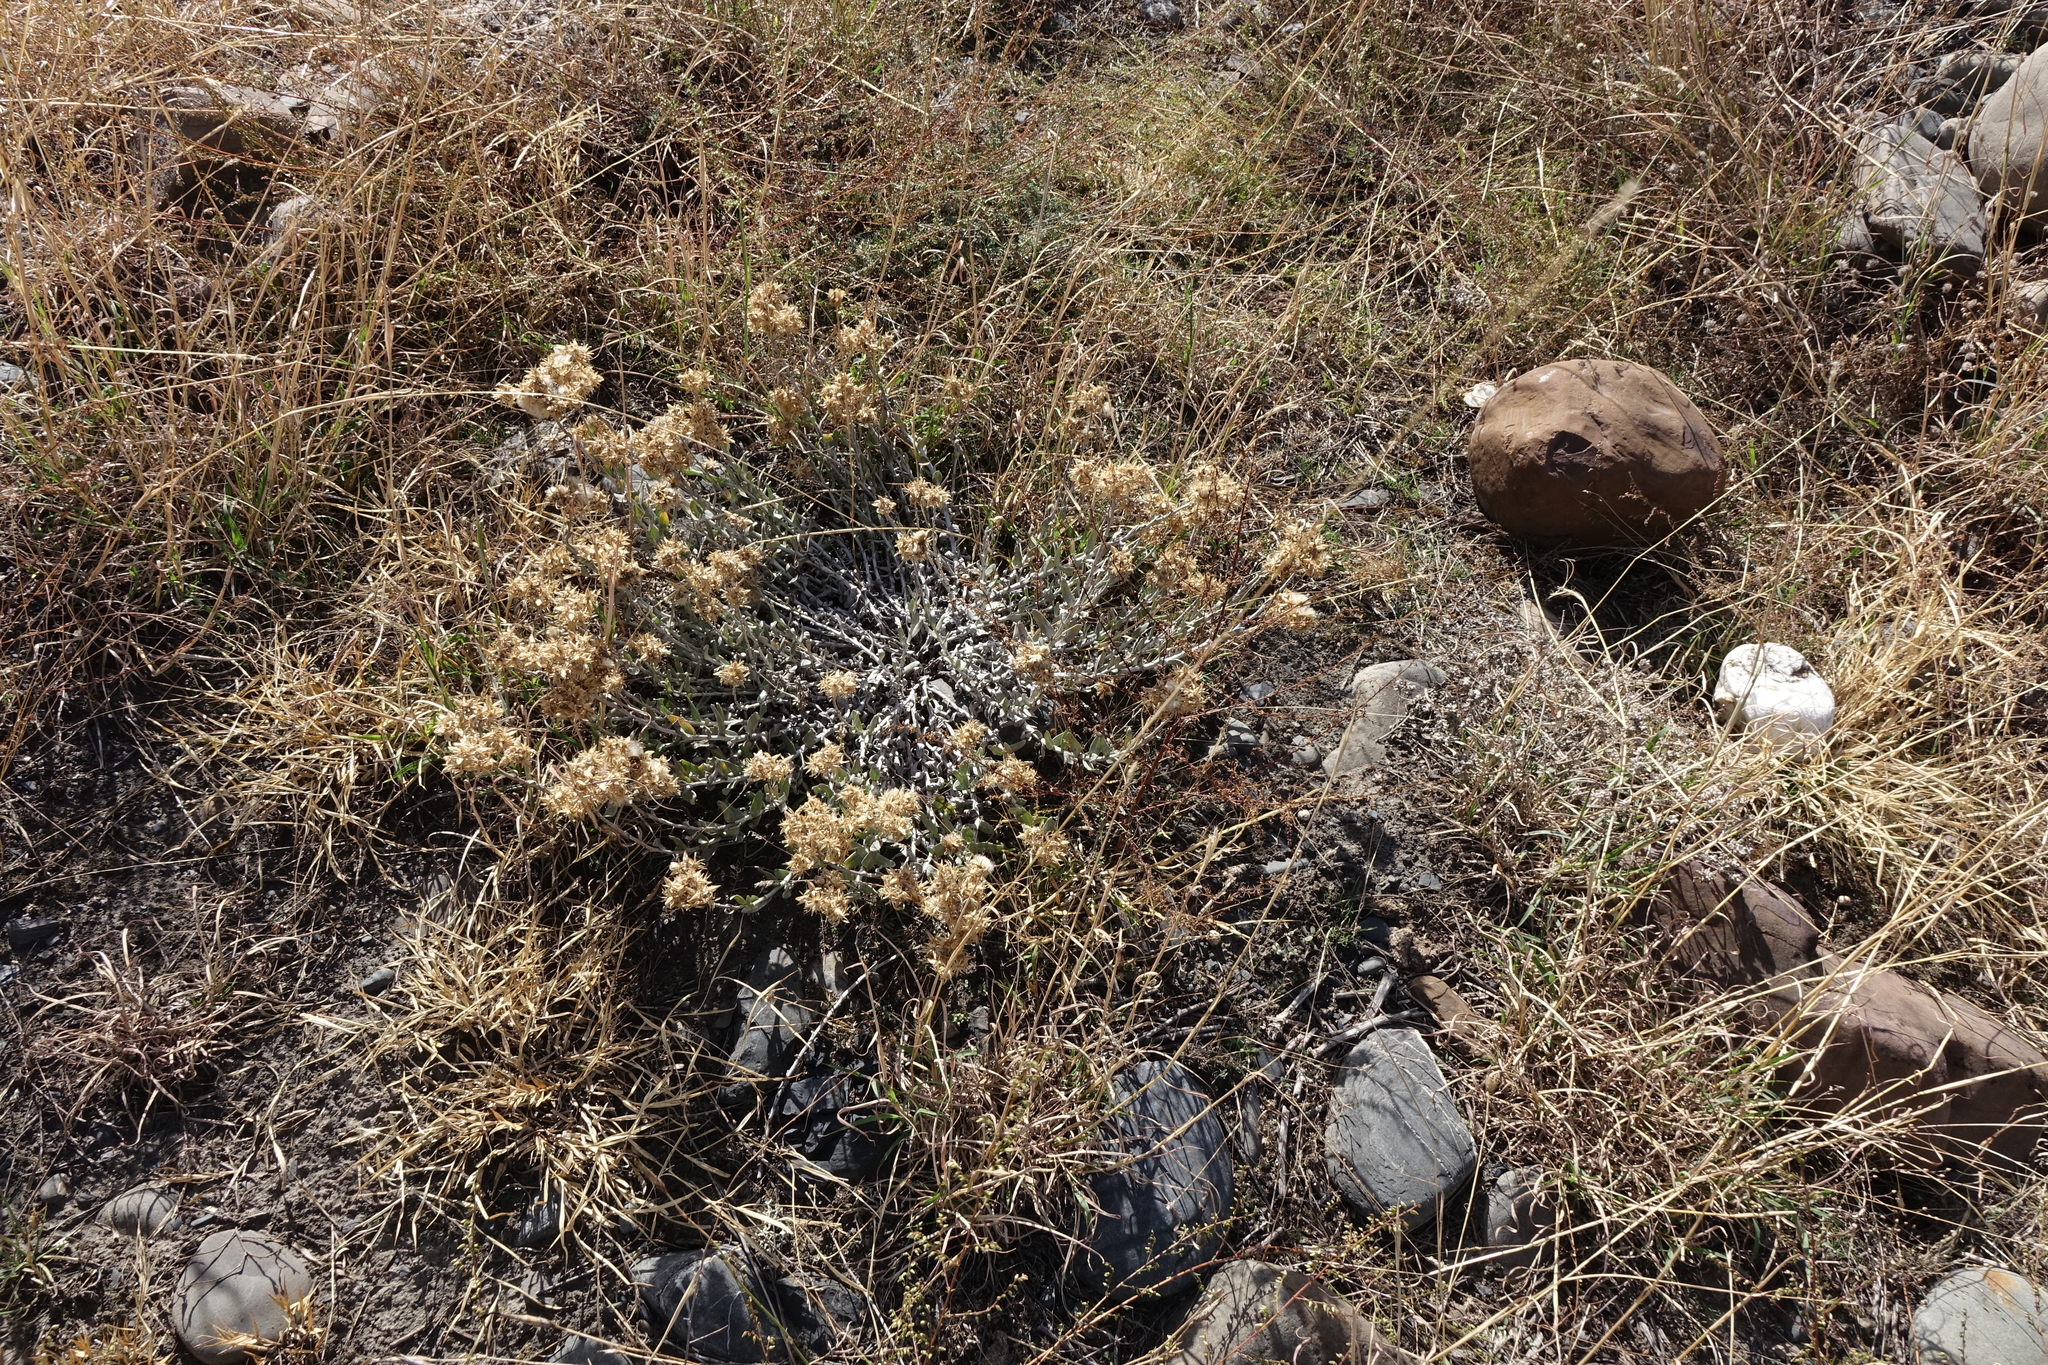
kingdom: Plantae
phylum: Tracheophyta
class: Magnoliopsida
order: Asterales
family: Asteraceae
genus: Cladochaeta
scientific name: Cladochaeta candidissima
